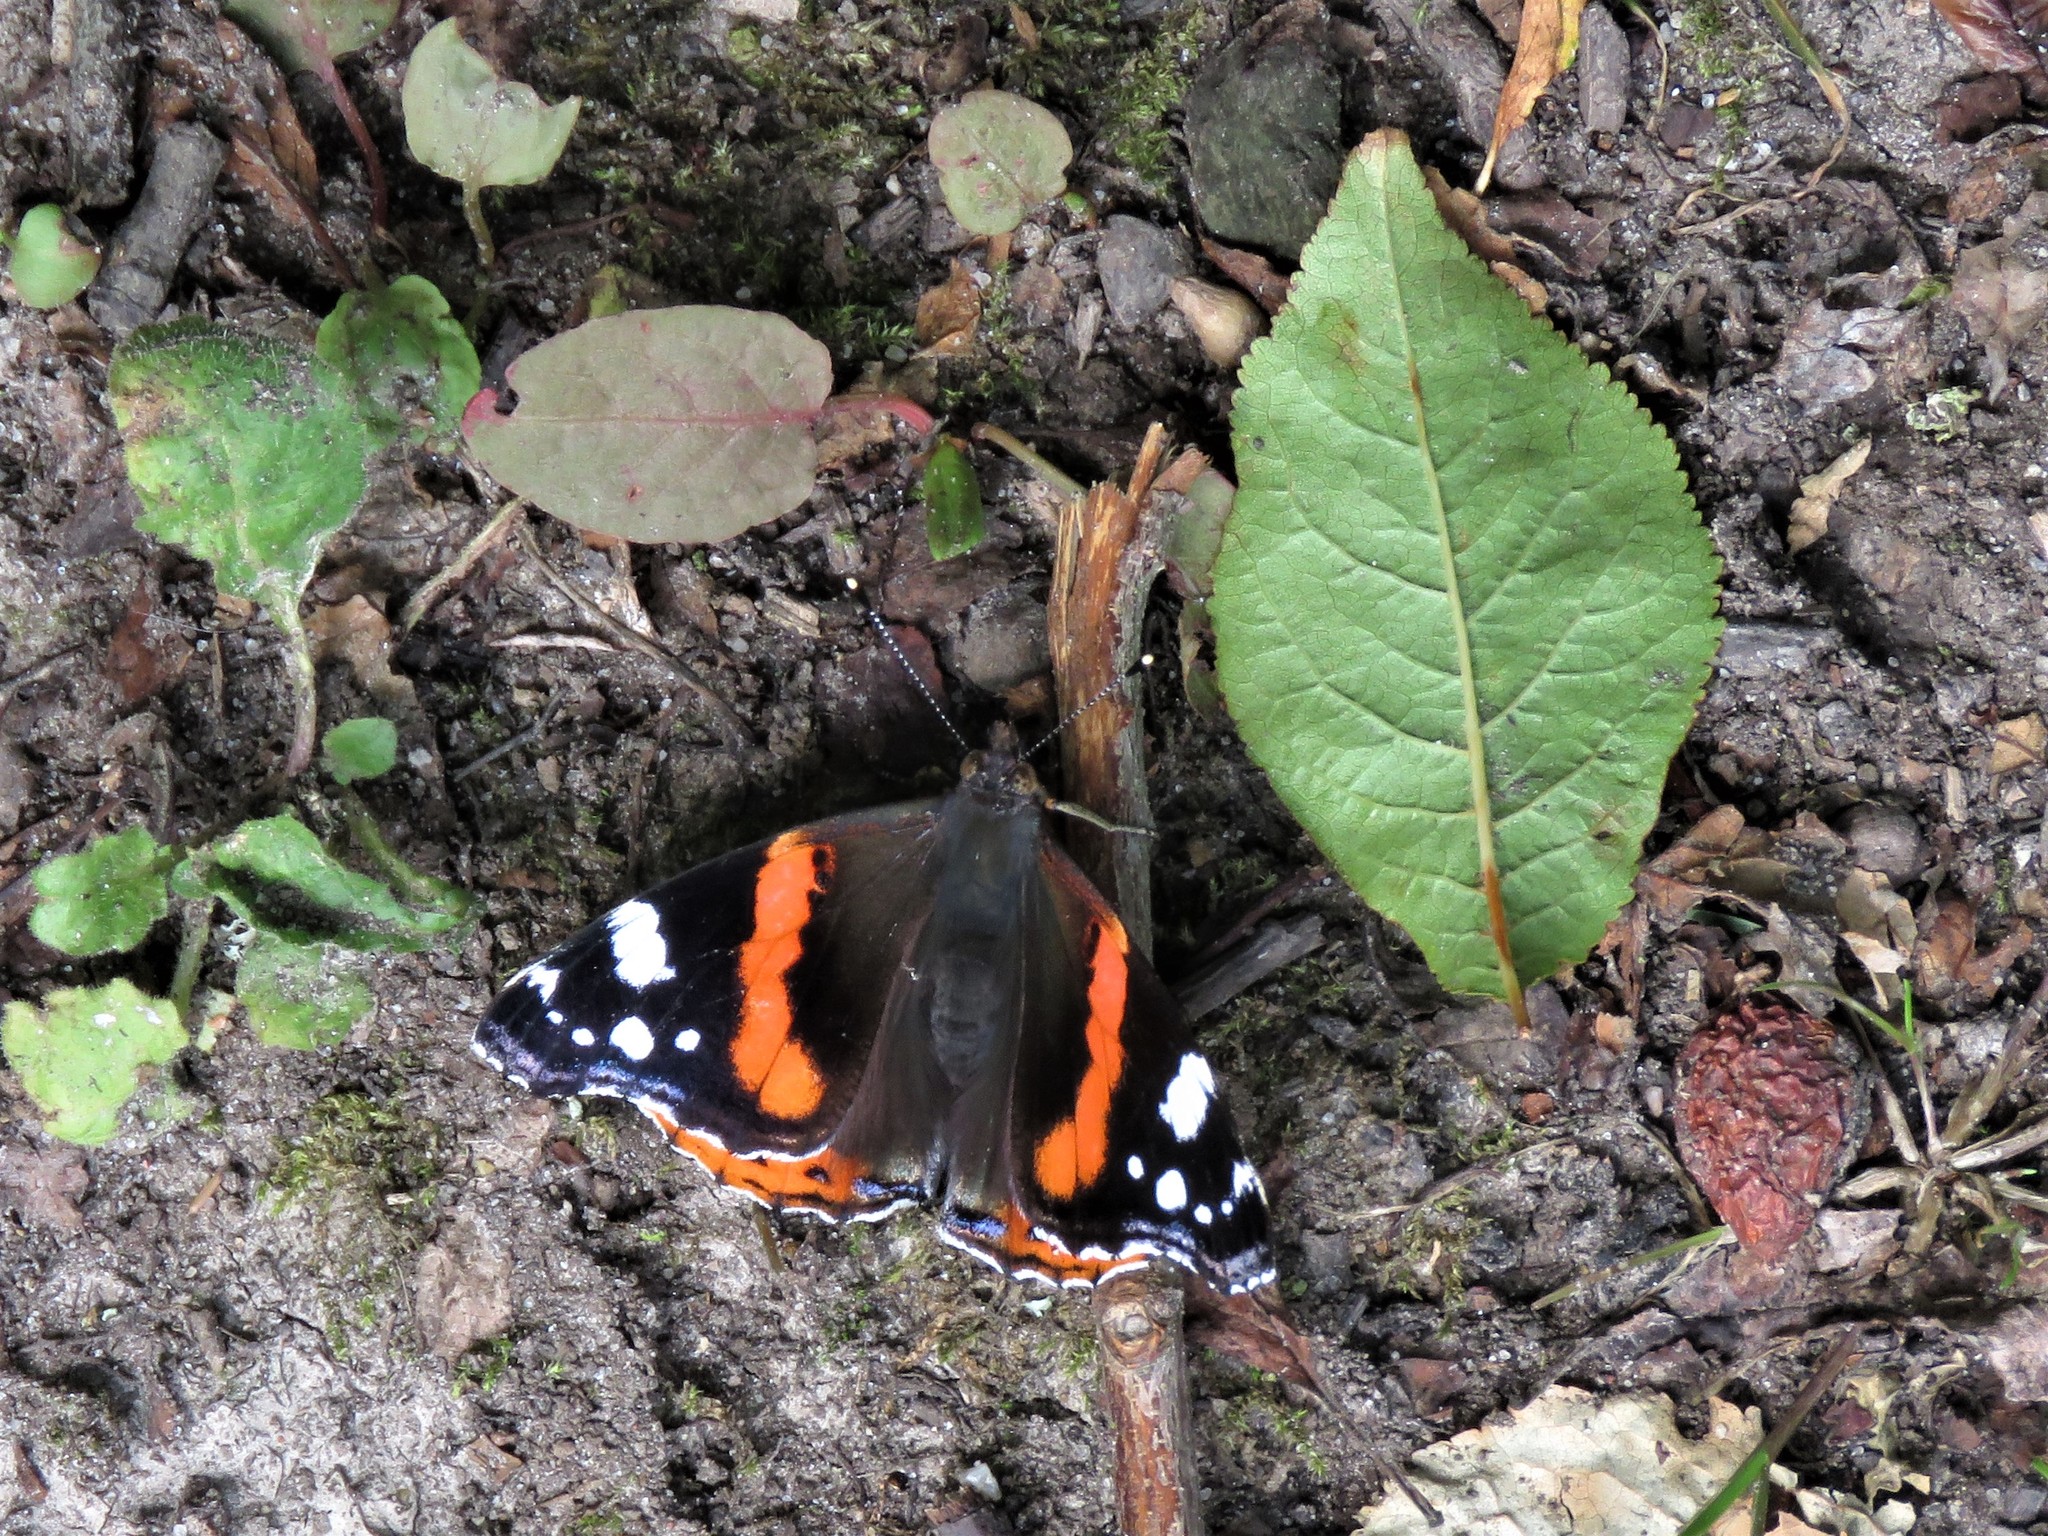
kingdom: Animalia
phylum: Arthropoda
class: Insecta
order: Lepidoptera
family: Nymphalidae
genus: Vanessa
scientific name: Vanessa atalanta
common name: Red admiral
